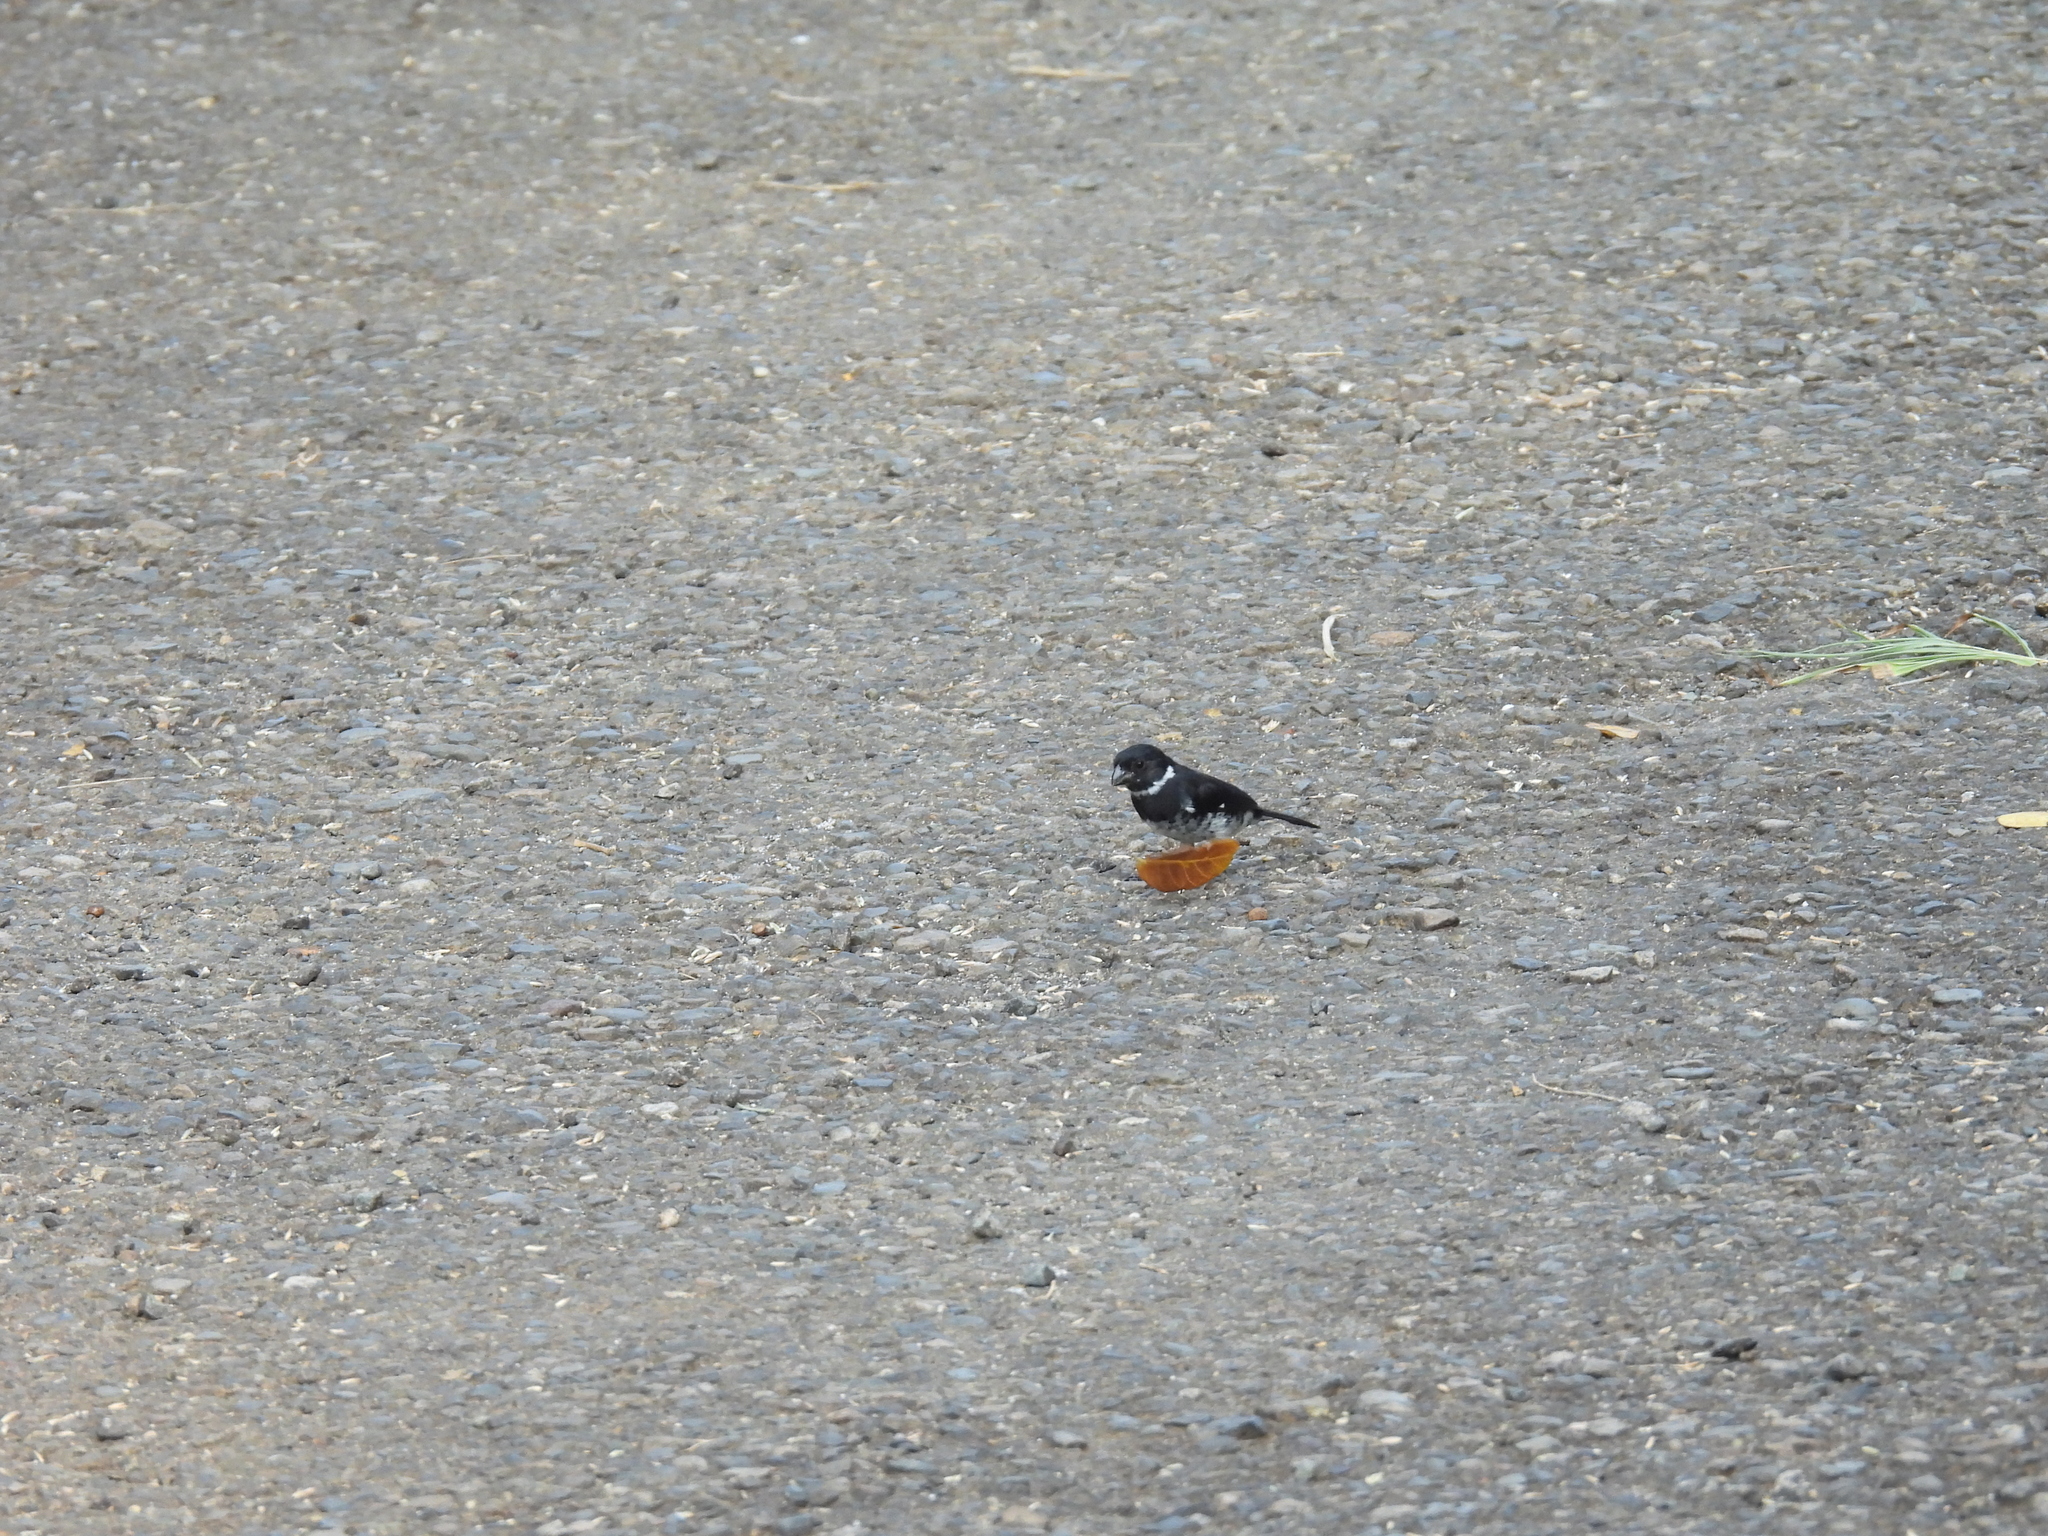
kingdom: Animalia
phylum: Chordata
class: Aves
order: Passeriformes
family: Thraupidae
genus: Sporophila
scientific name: Sporophila corvina
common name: Variable seedeater
